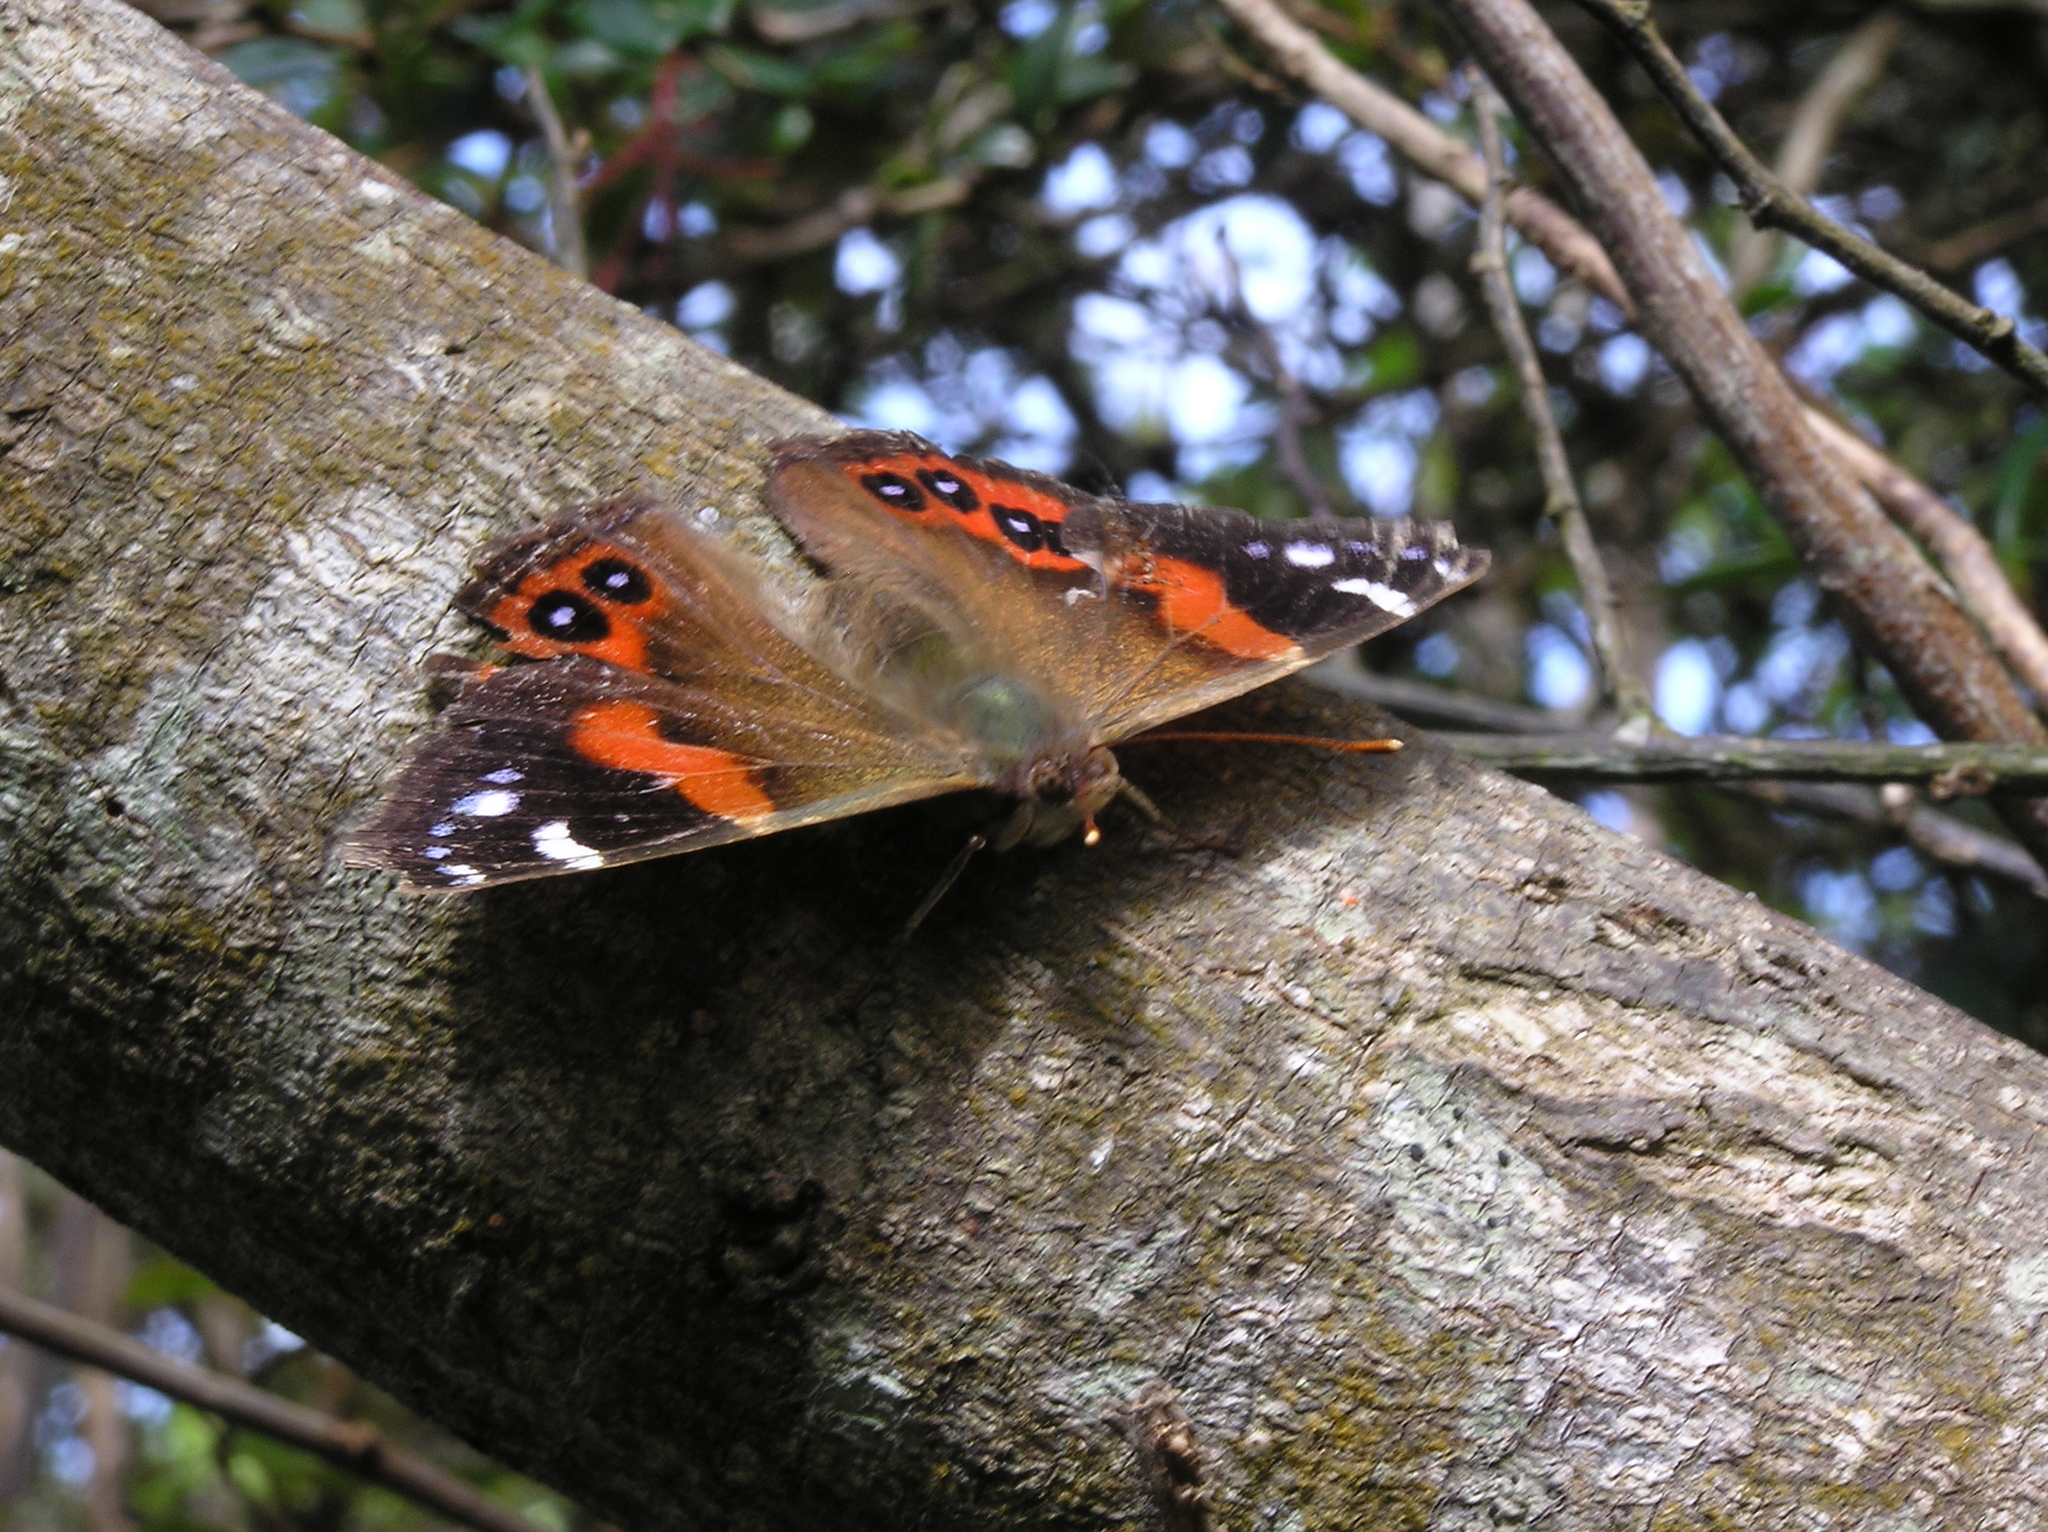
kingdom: Animalia
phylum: Arthropoda
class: Insecta
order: Lepidoptera
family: Nymphalidae
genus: Vanessa
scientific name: Vanessa gonerilla
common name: New zealand red admiral
